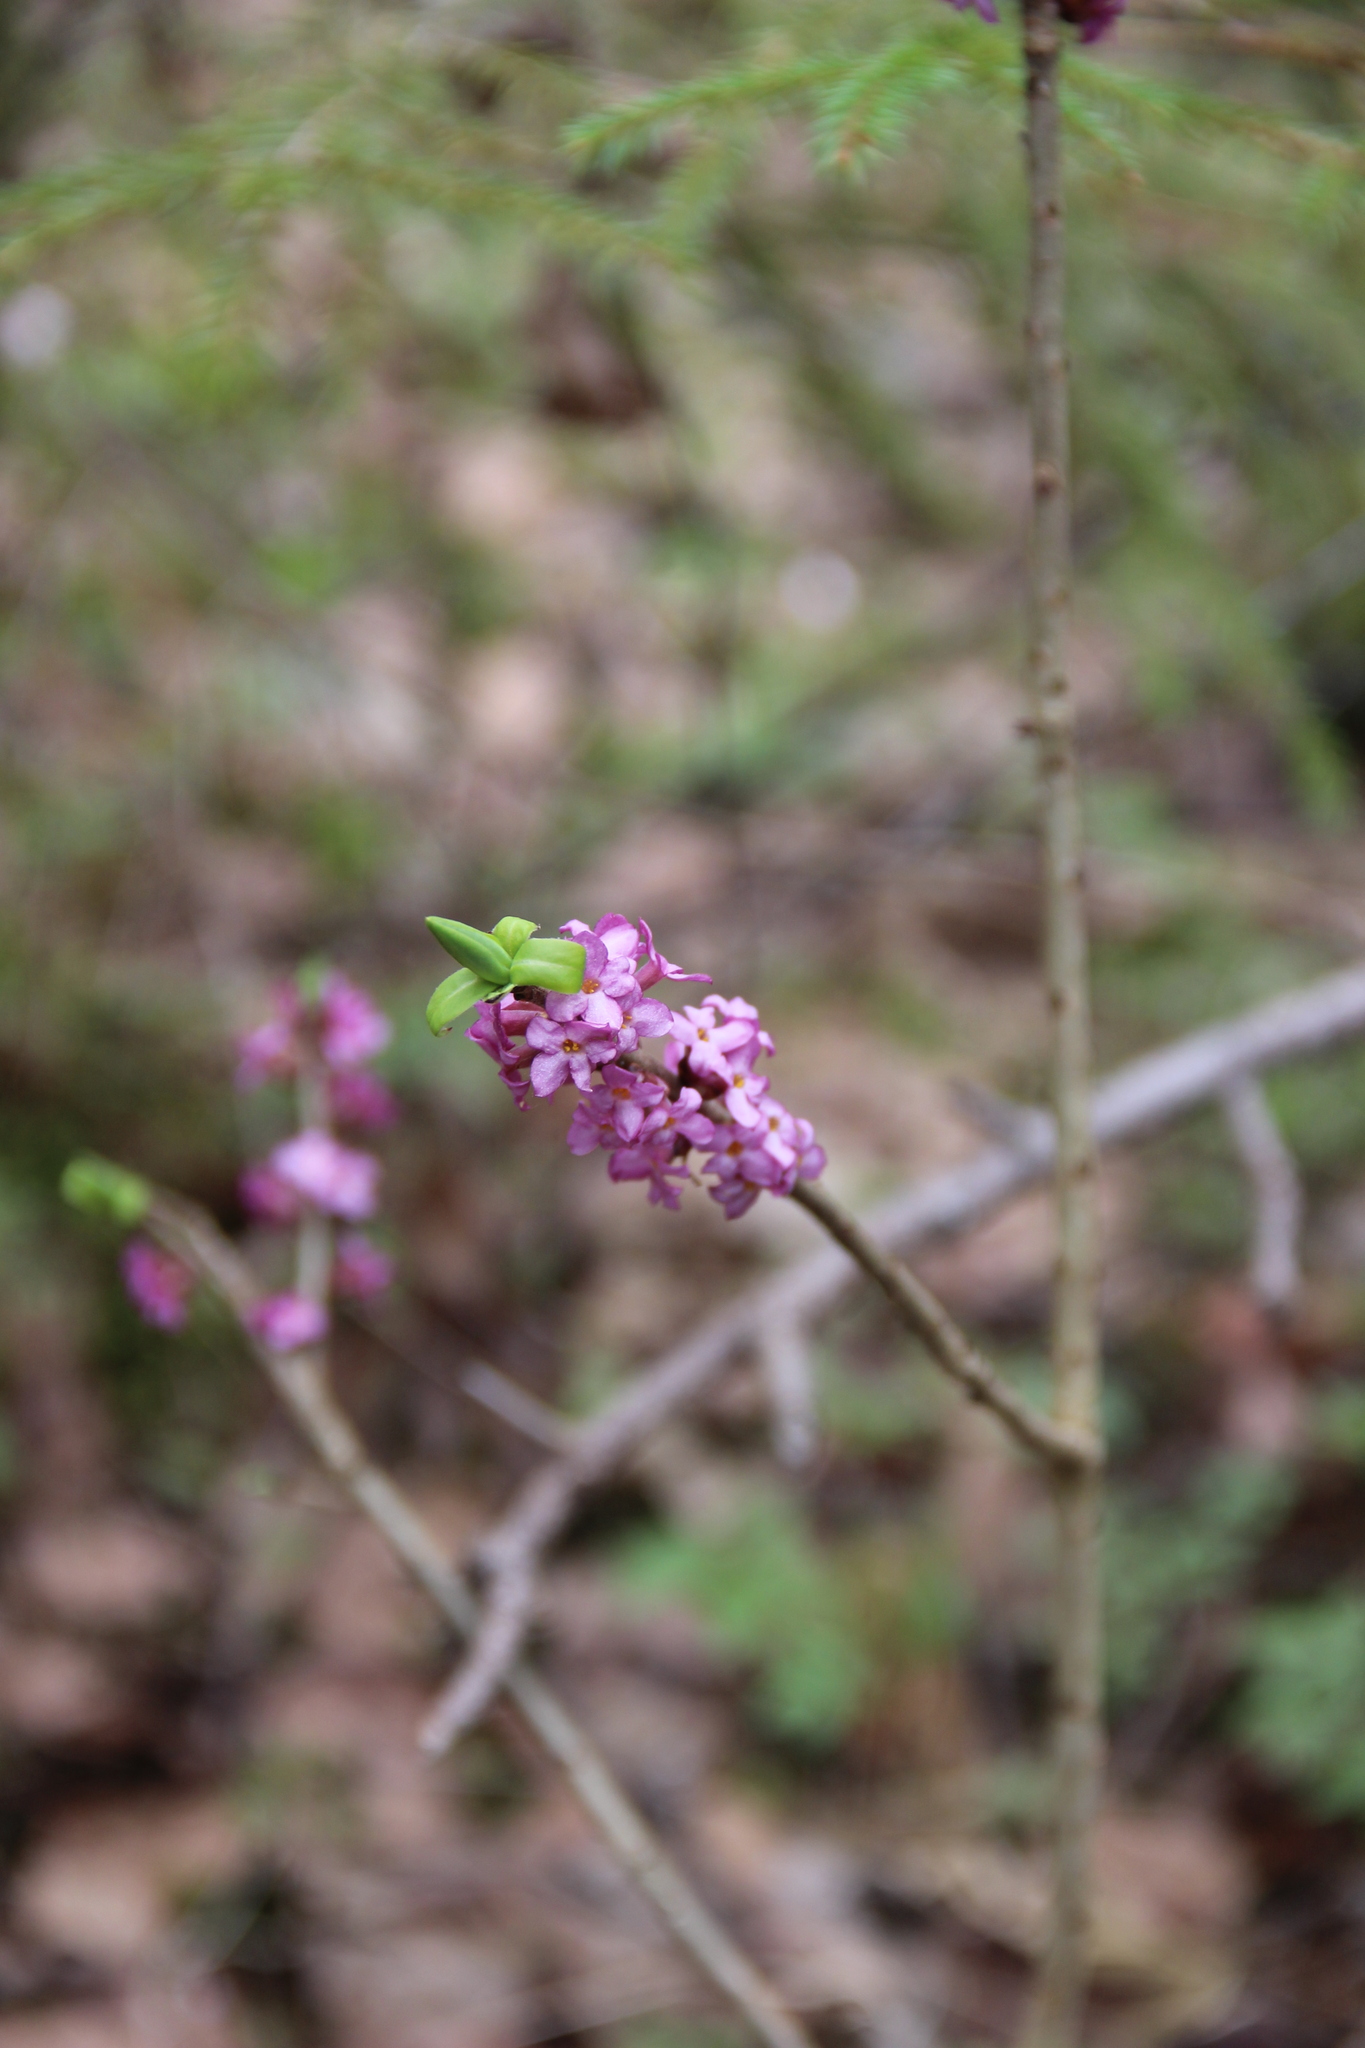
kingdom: Plantae
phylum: Tracheophyta
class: Magnoliopsida
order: Malvales
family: Thymelaeaceae
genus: Daphne
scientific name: Daphne mezereum
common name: Mezereon
